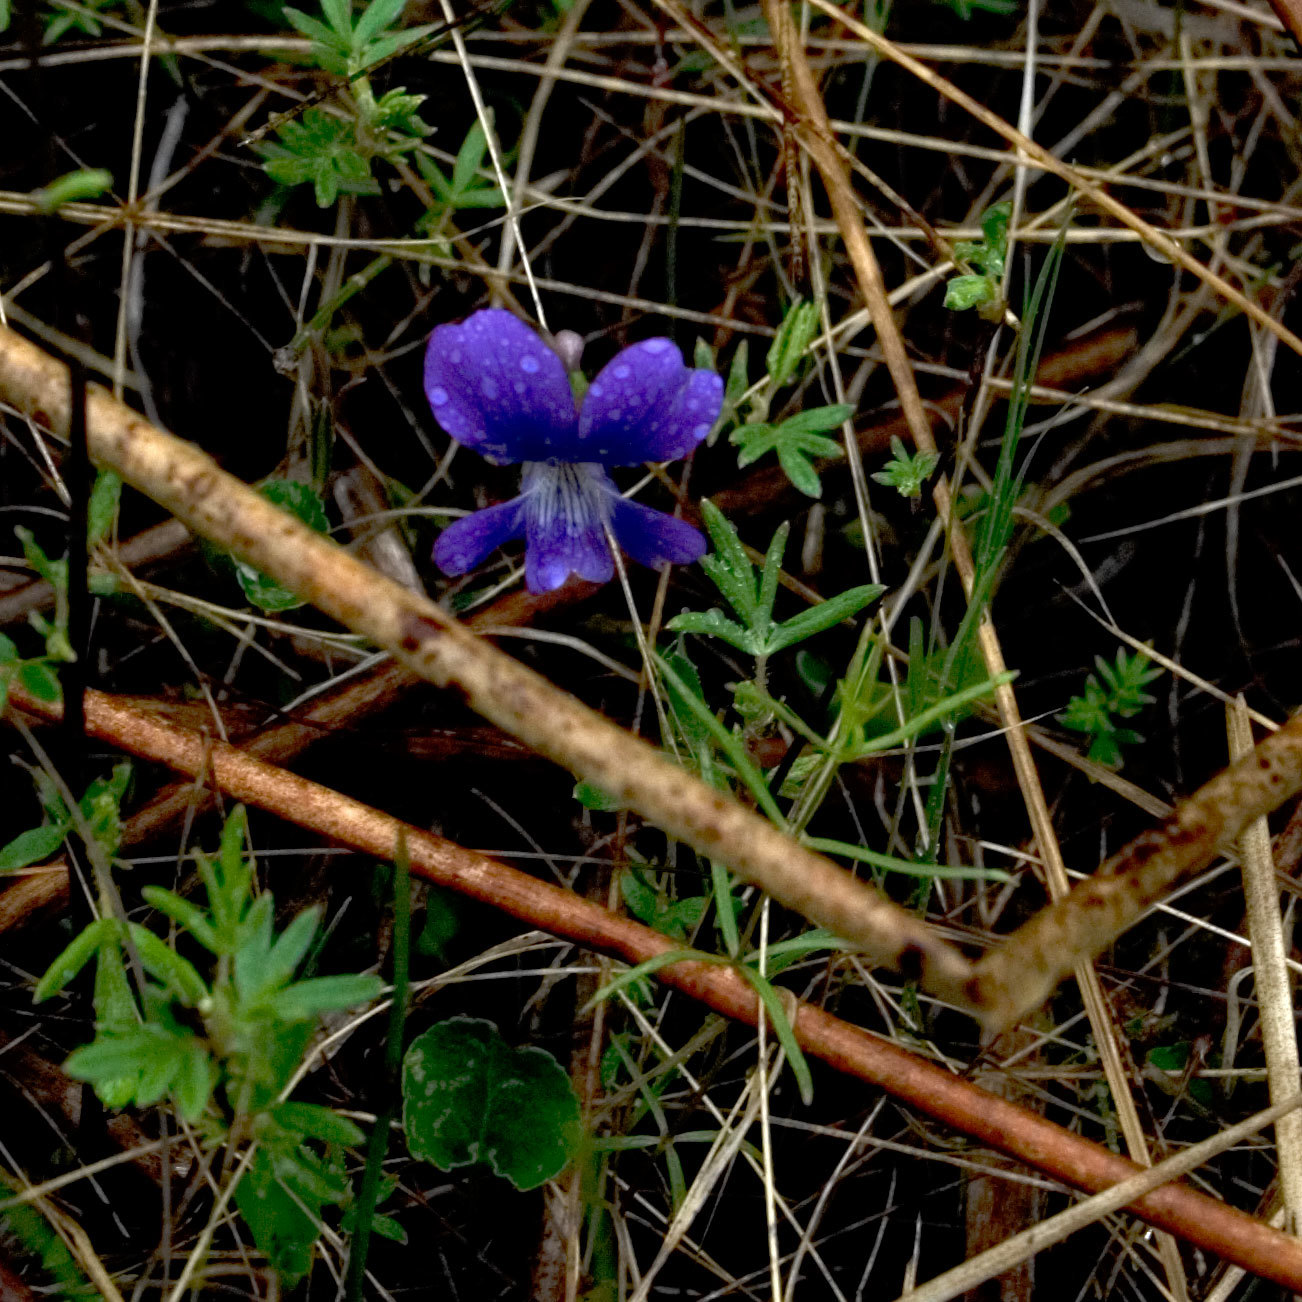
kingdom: Plantae
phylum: Tracheophyta
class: Magnoliopsida
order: Malpighiales
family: Violaceae
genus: Viola
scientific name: Viola nephrophylla
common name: Blue meadow violet
